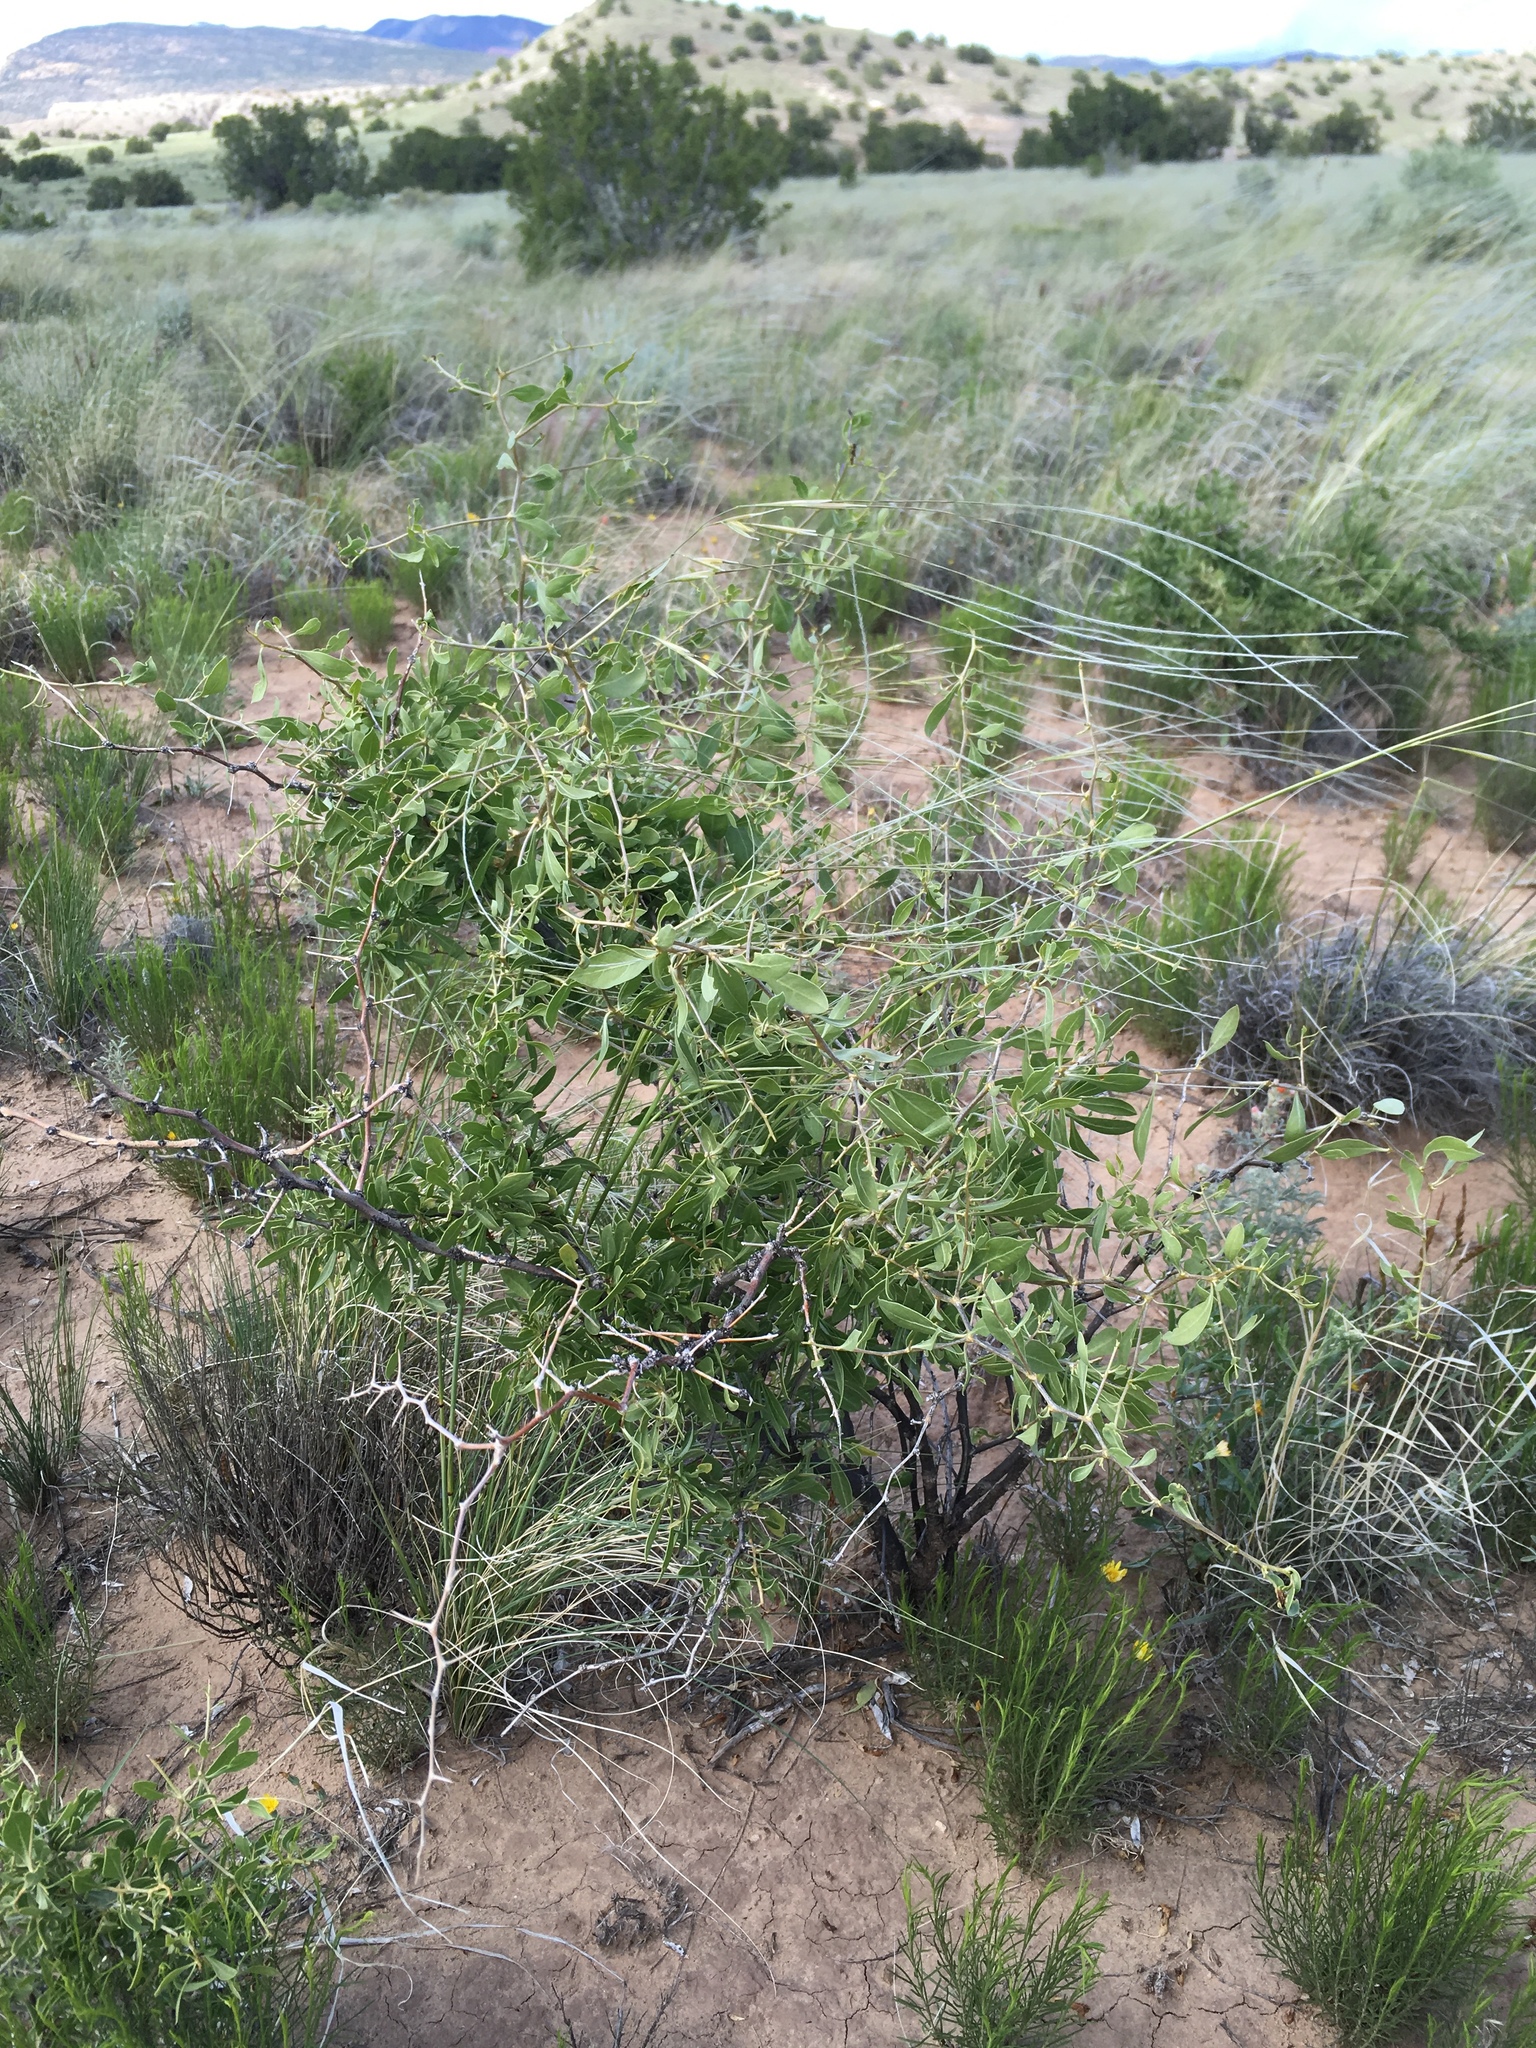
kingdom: Plantae
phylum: Tracheophyta
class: Magnoliopsida
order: Solanales
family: Solanaceae
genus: Lycium
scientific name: Lycium pallidum
